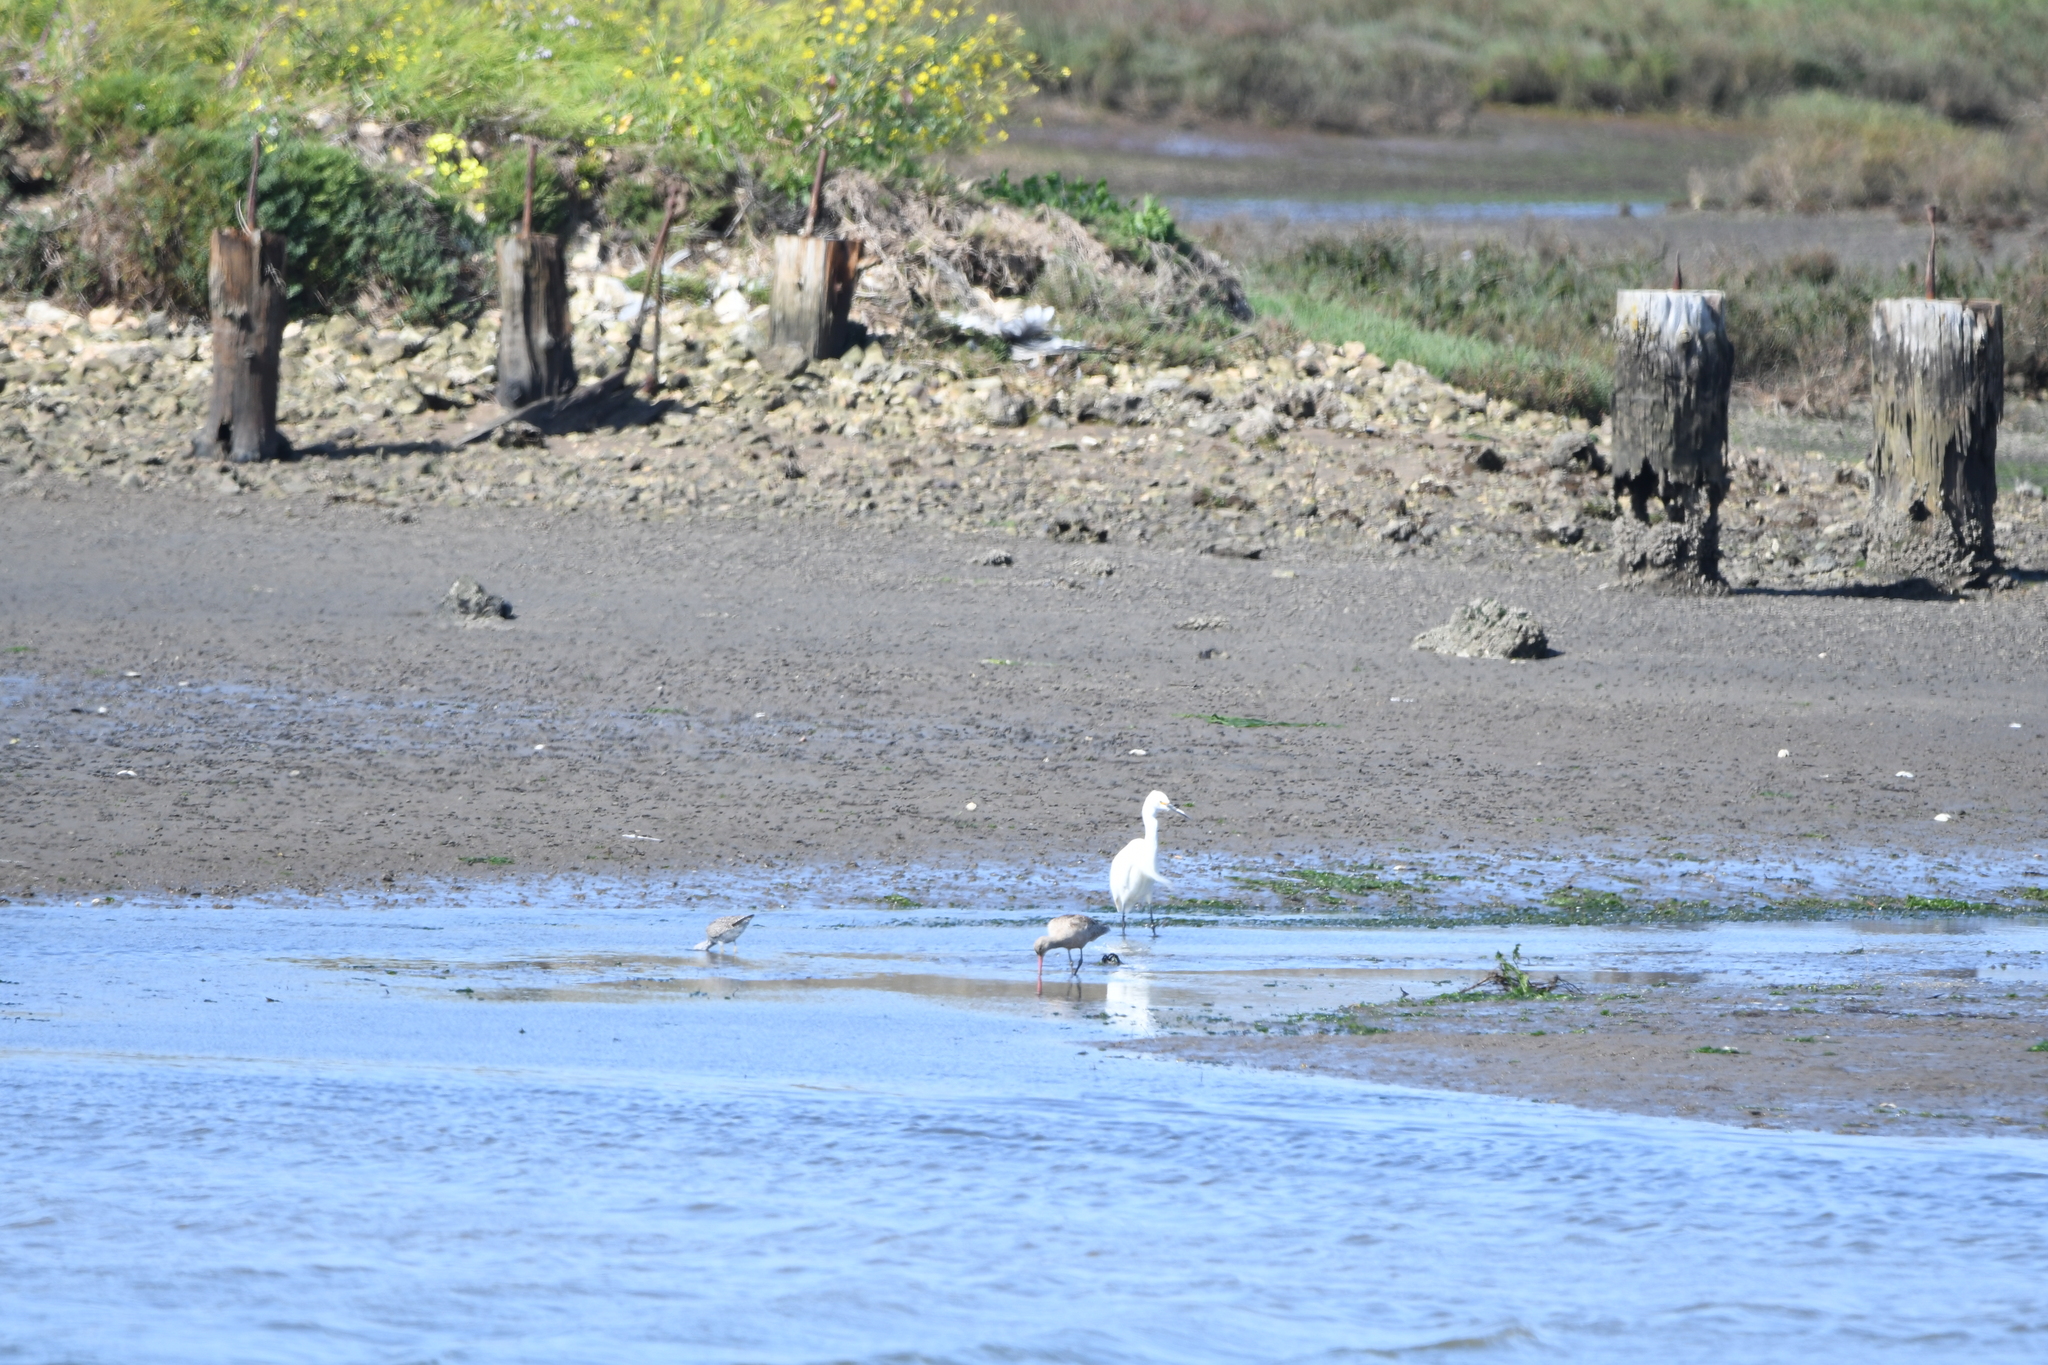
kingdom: Animalia
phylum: Chordata
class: Aves
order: Pelecaniformes
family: Ardeidae
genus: Egretta
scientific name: Egretta thula
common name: Snowy egret
